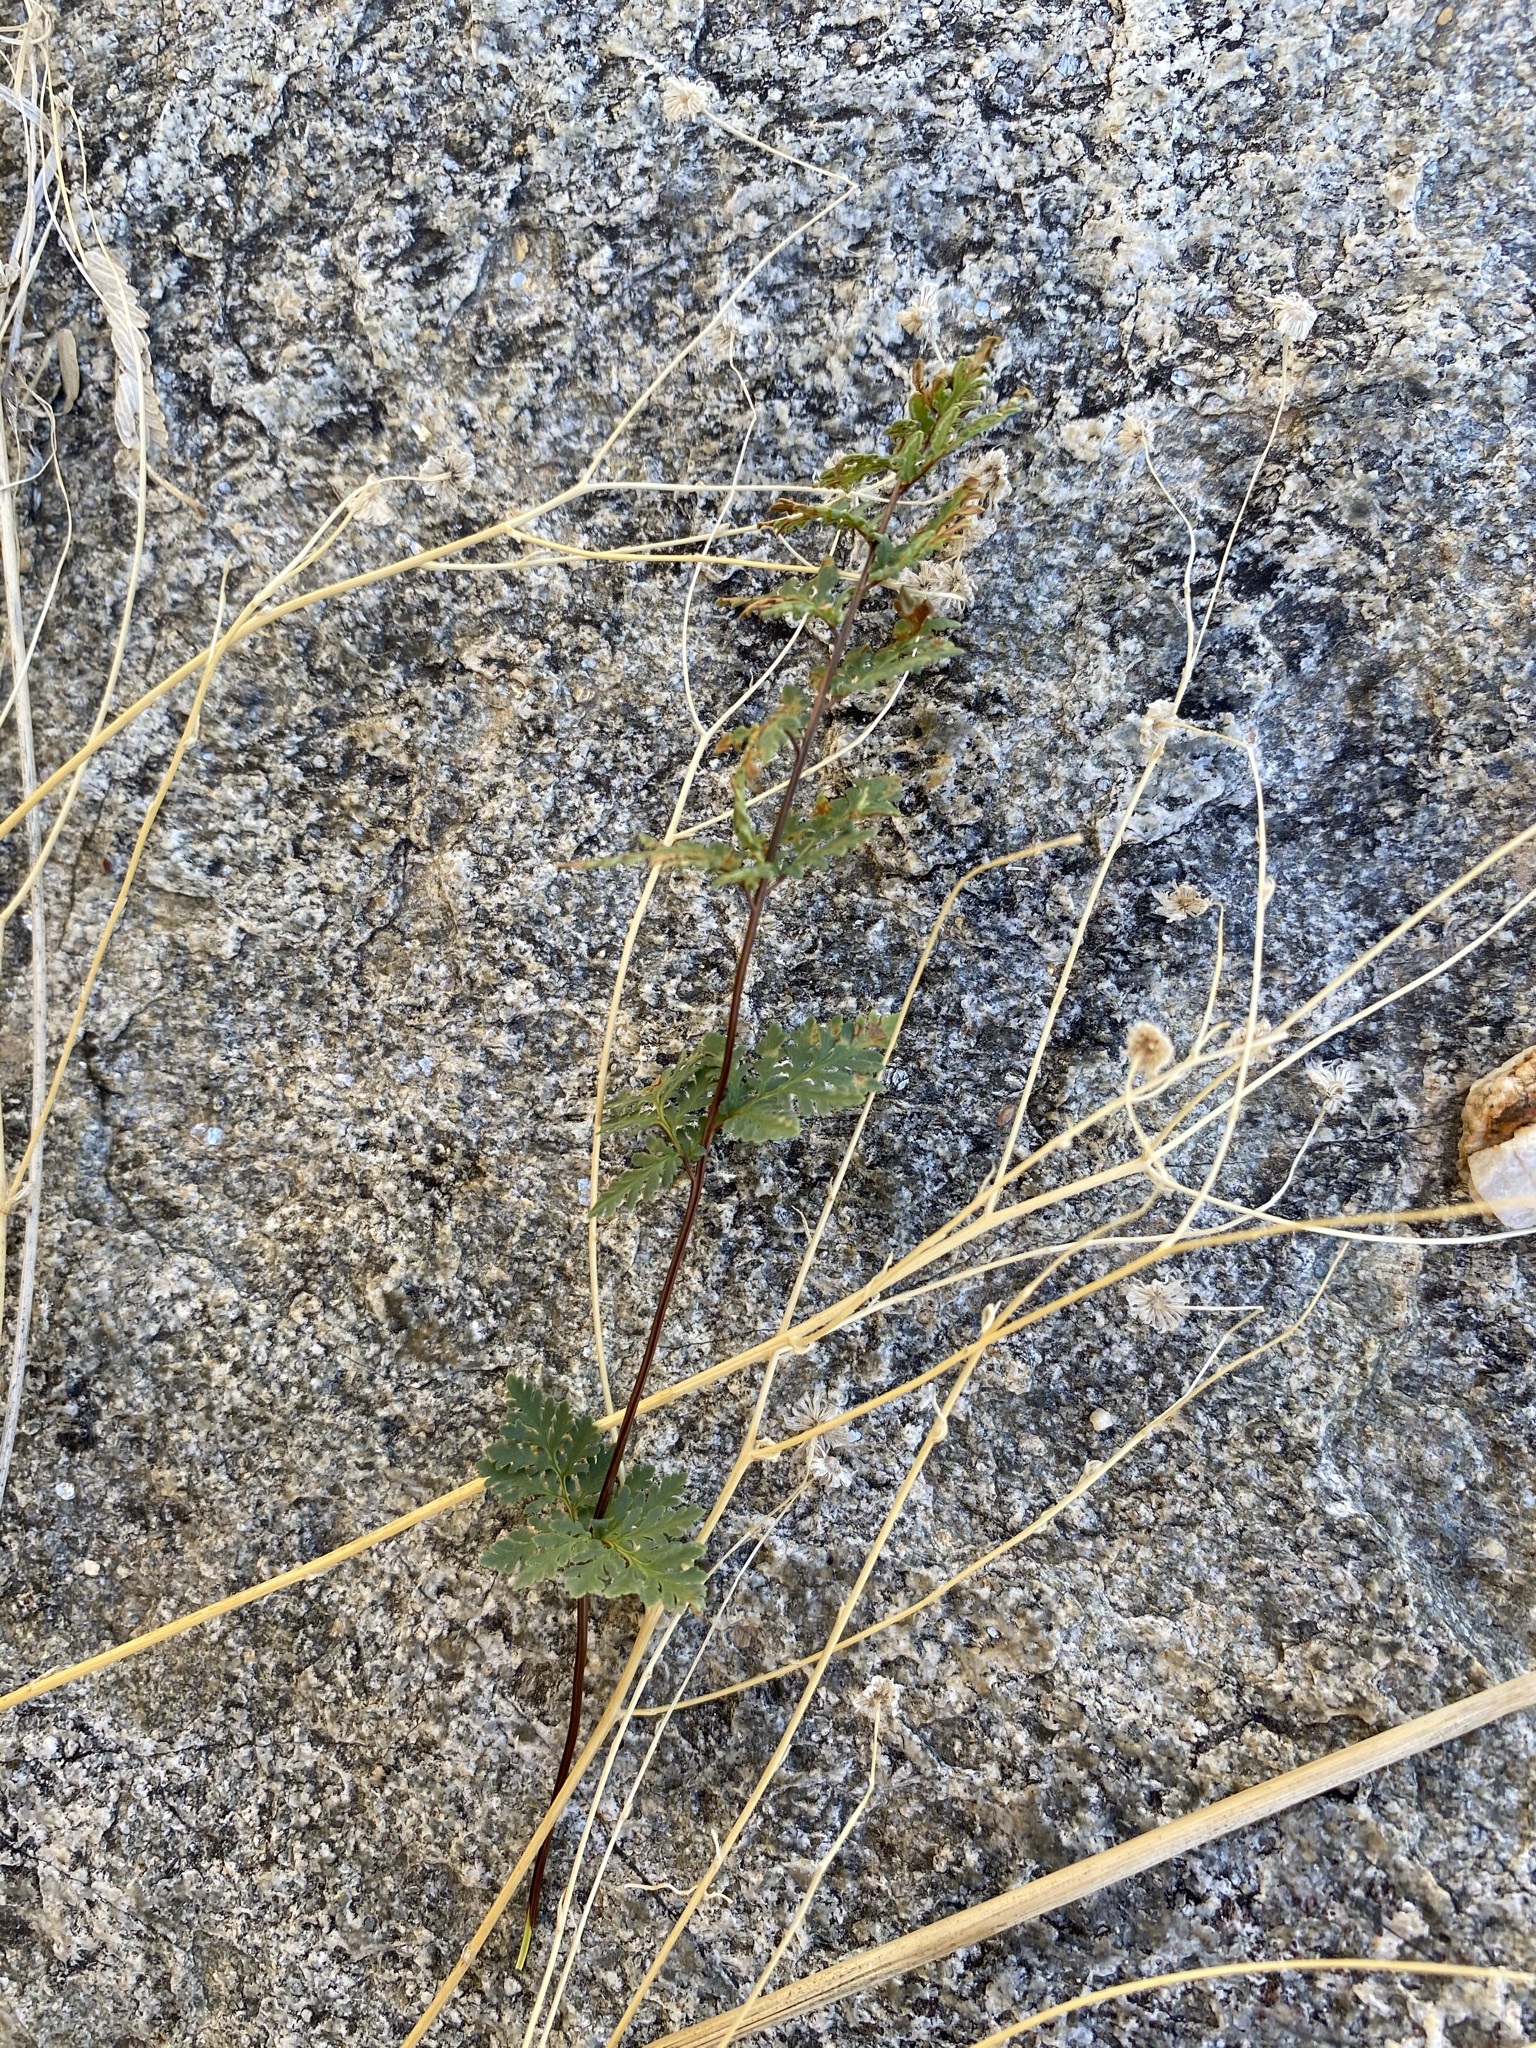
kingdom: Plantae
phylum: Tracheophyta
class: Polypodiopsida
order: Polypodiales
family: Pteridaceae
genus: Myriopteris
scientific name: Myriopteris wrightii
